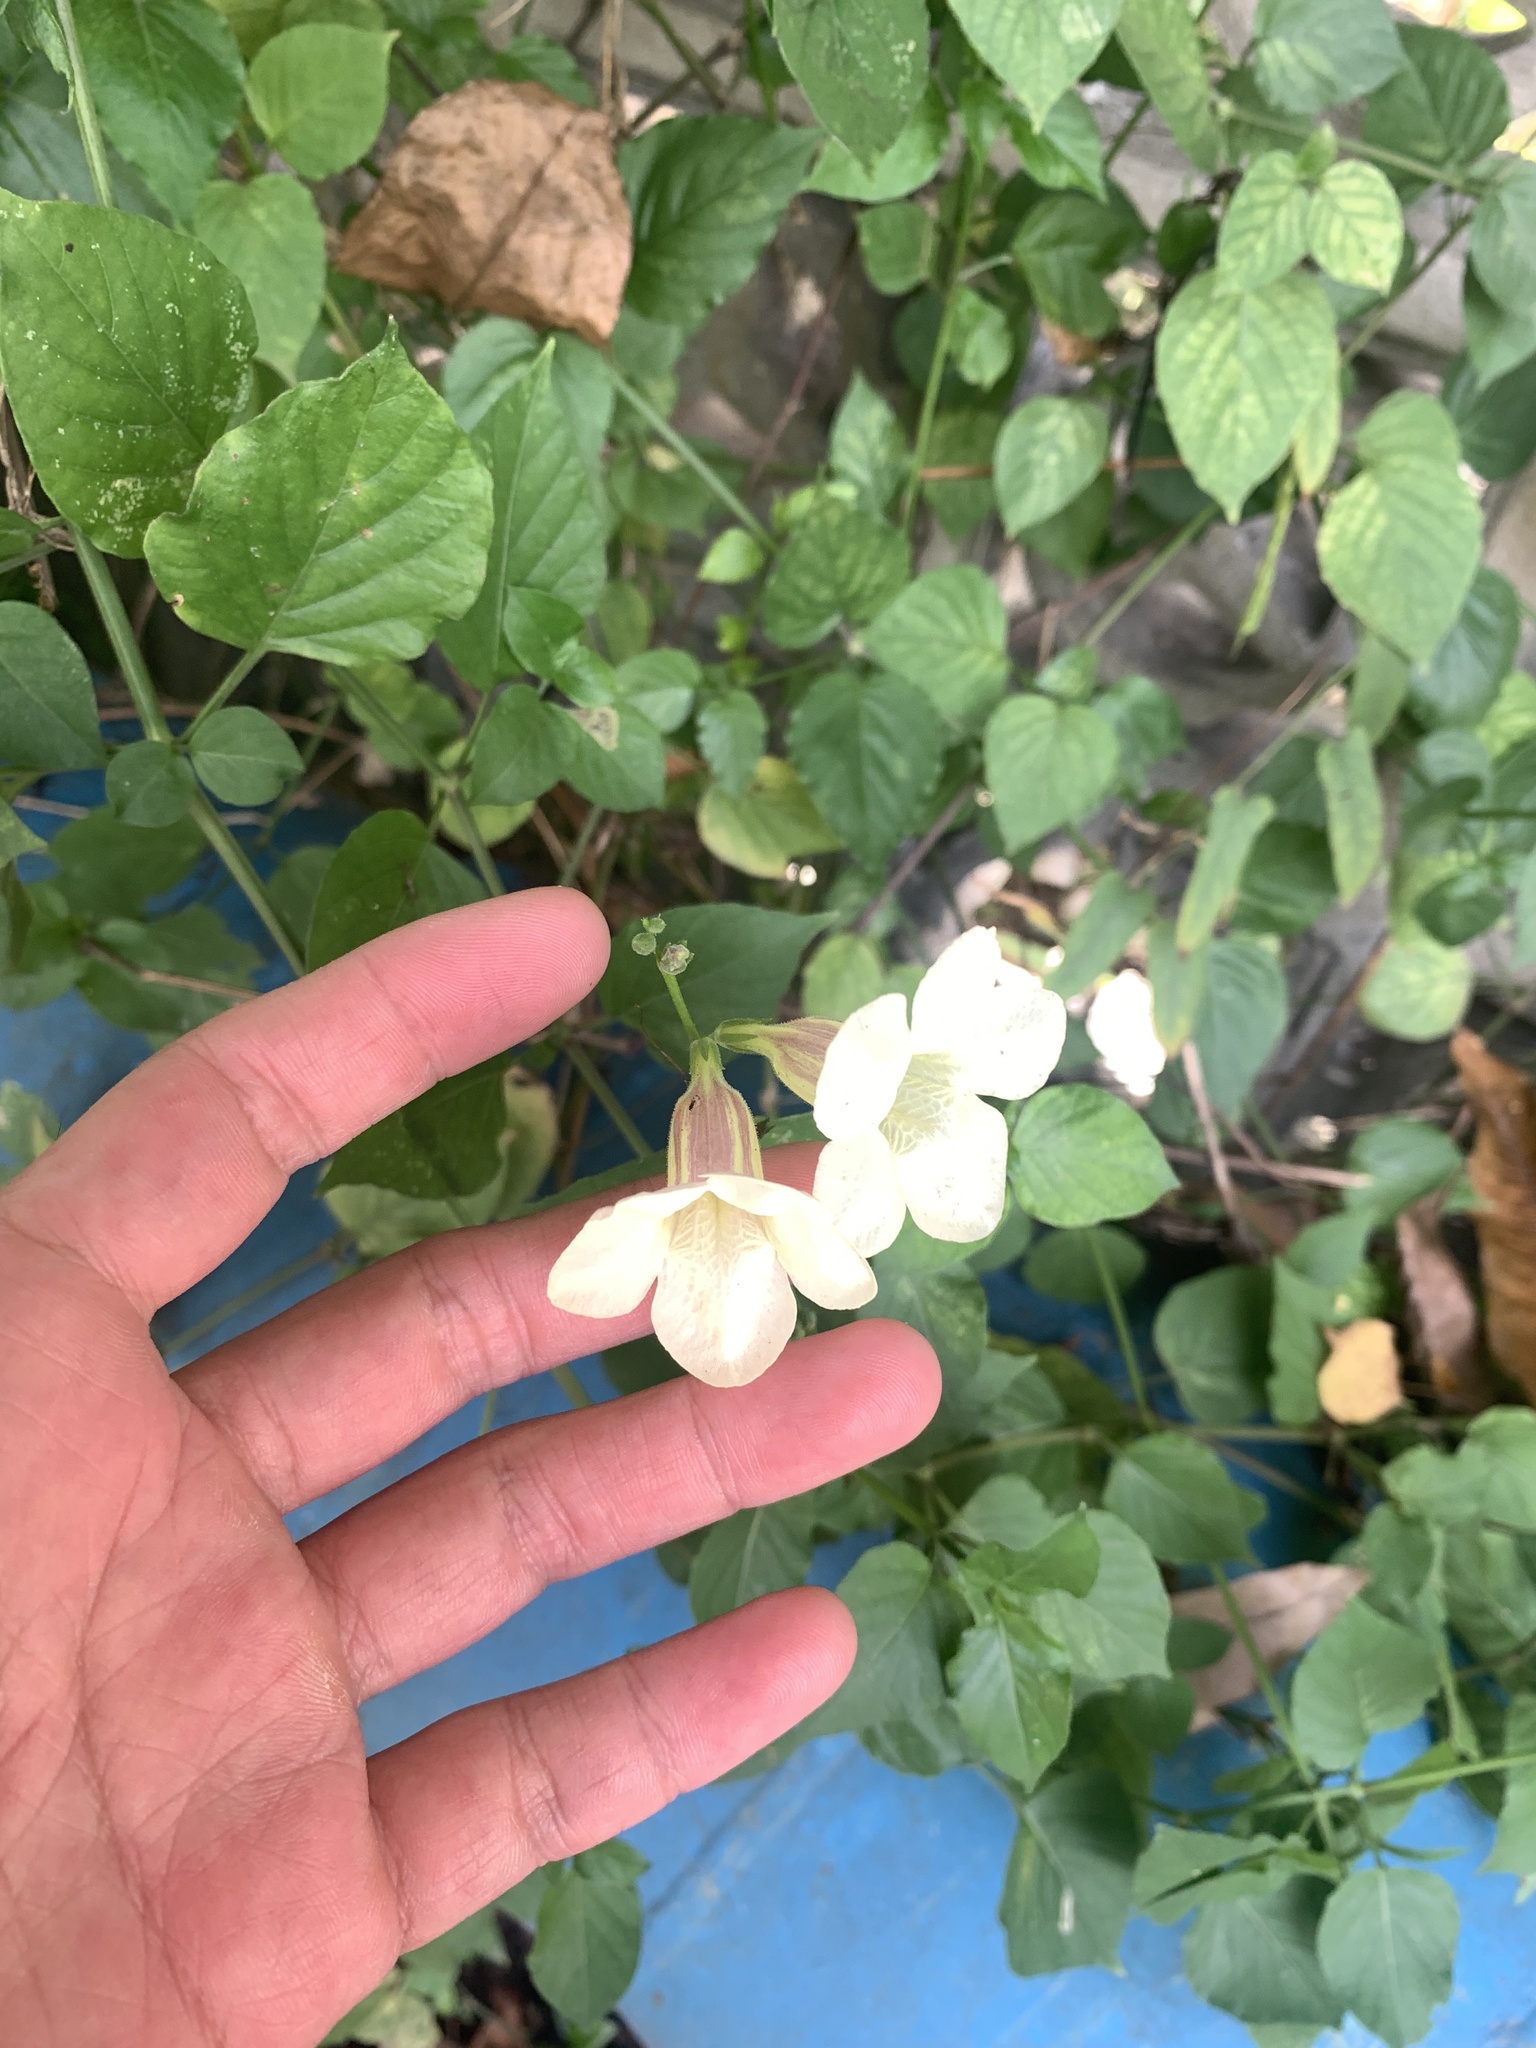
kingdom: Plantae
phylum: Tracheophyta
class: Magnoliopsida
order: Lamiales
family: Acanthaceae
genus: Asystasia
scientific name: Asystasia gangetica
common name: Chinese violet
